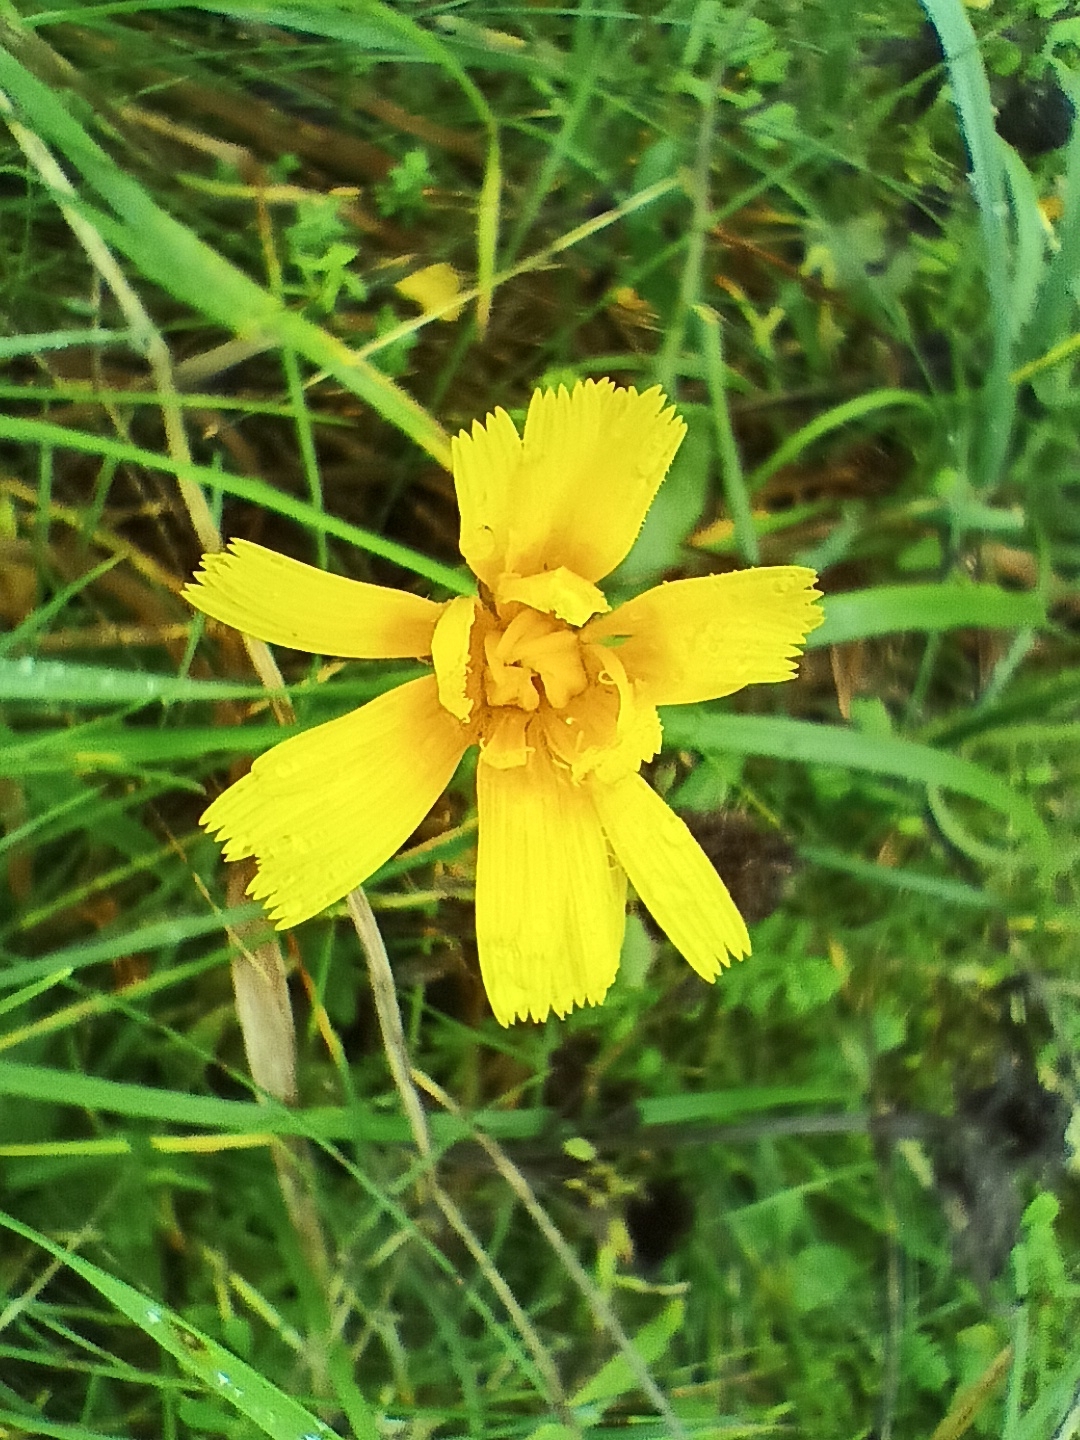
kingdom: Plantae
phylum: Tracheophyta
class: Magnoliopsida
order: Asterales
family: Asteraceae
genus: Picris
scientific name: Picris hieracioides
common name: Hawkweed oxtongue
